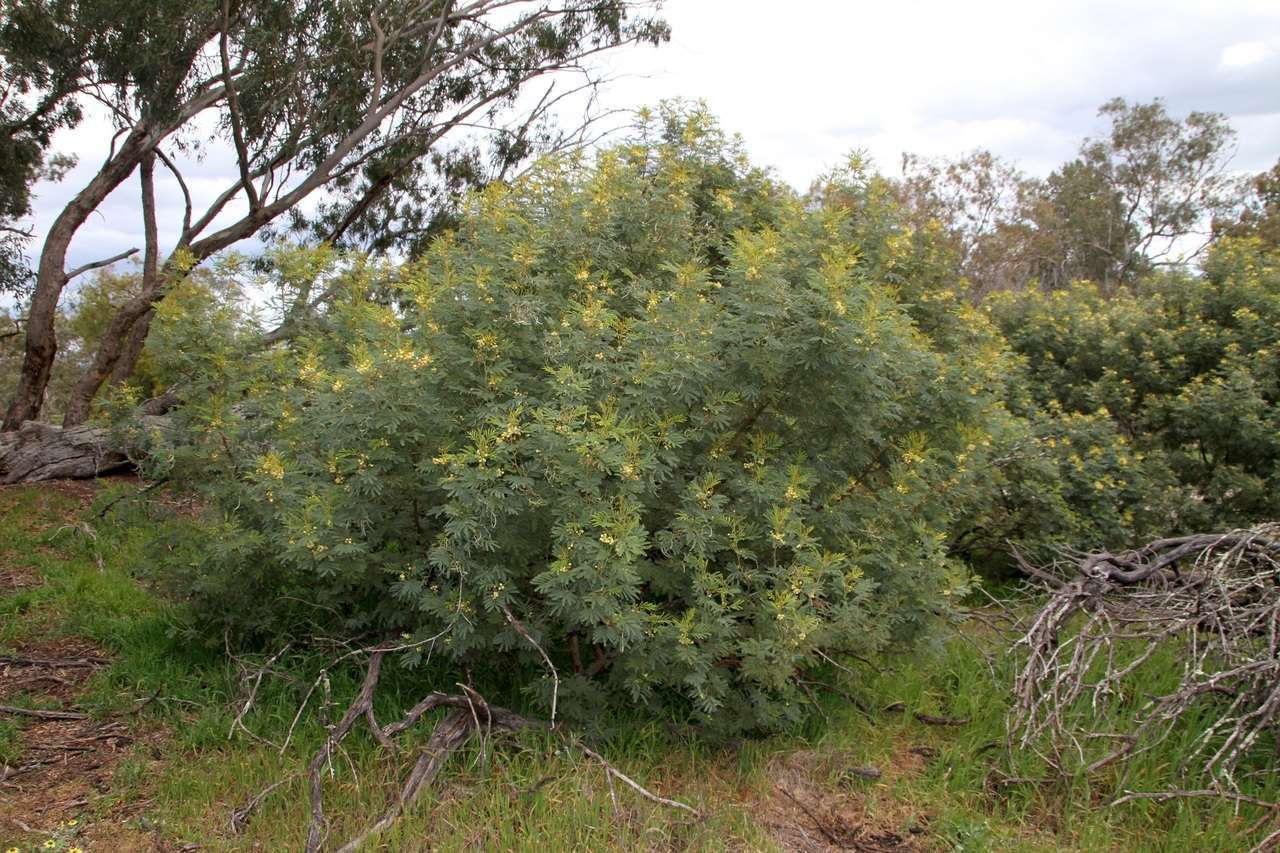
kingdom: Plantae
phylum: Tracheophyta
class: Magnoliopsida
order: Fabales
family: Fabaceae
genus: Acacia
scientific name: Acacia deanei
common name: Deane's wattle
